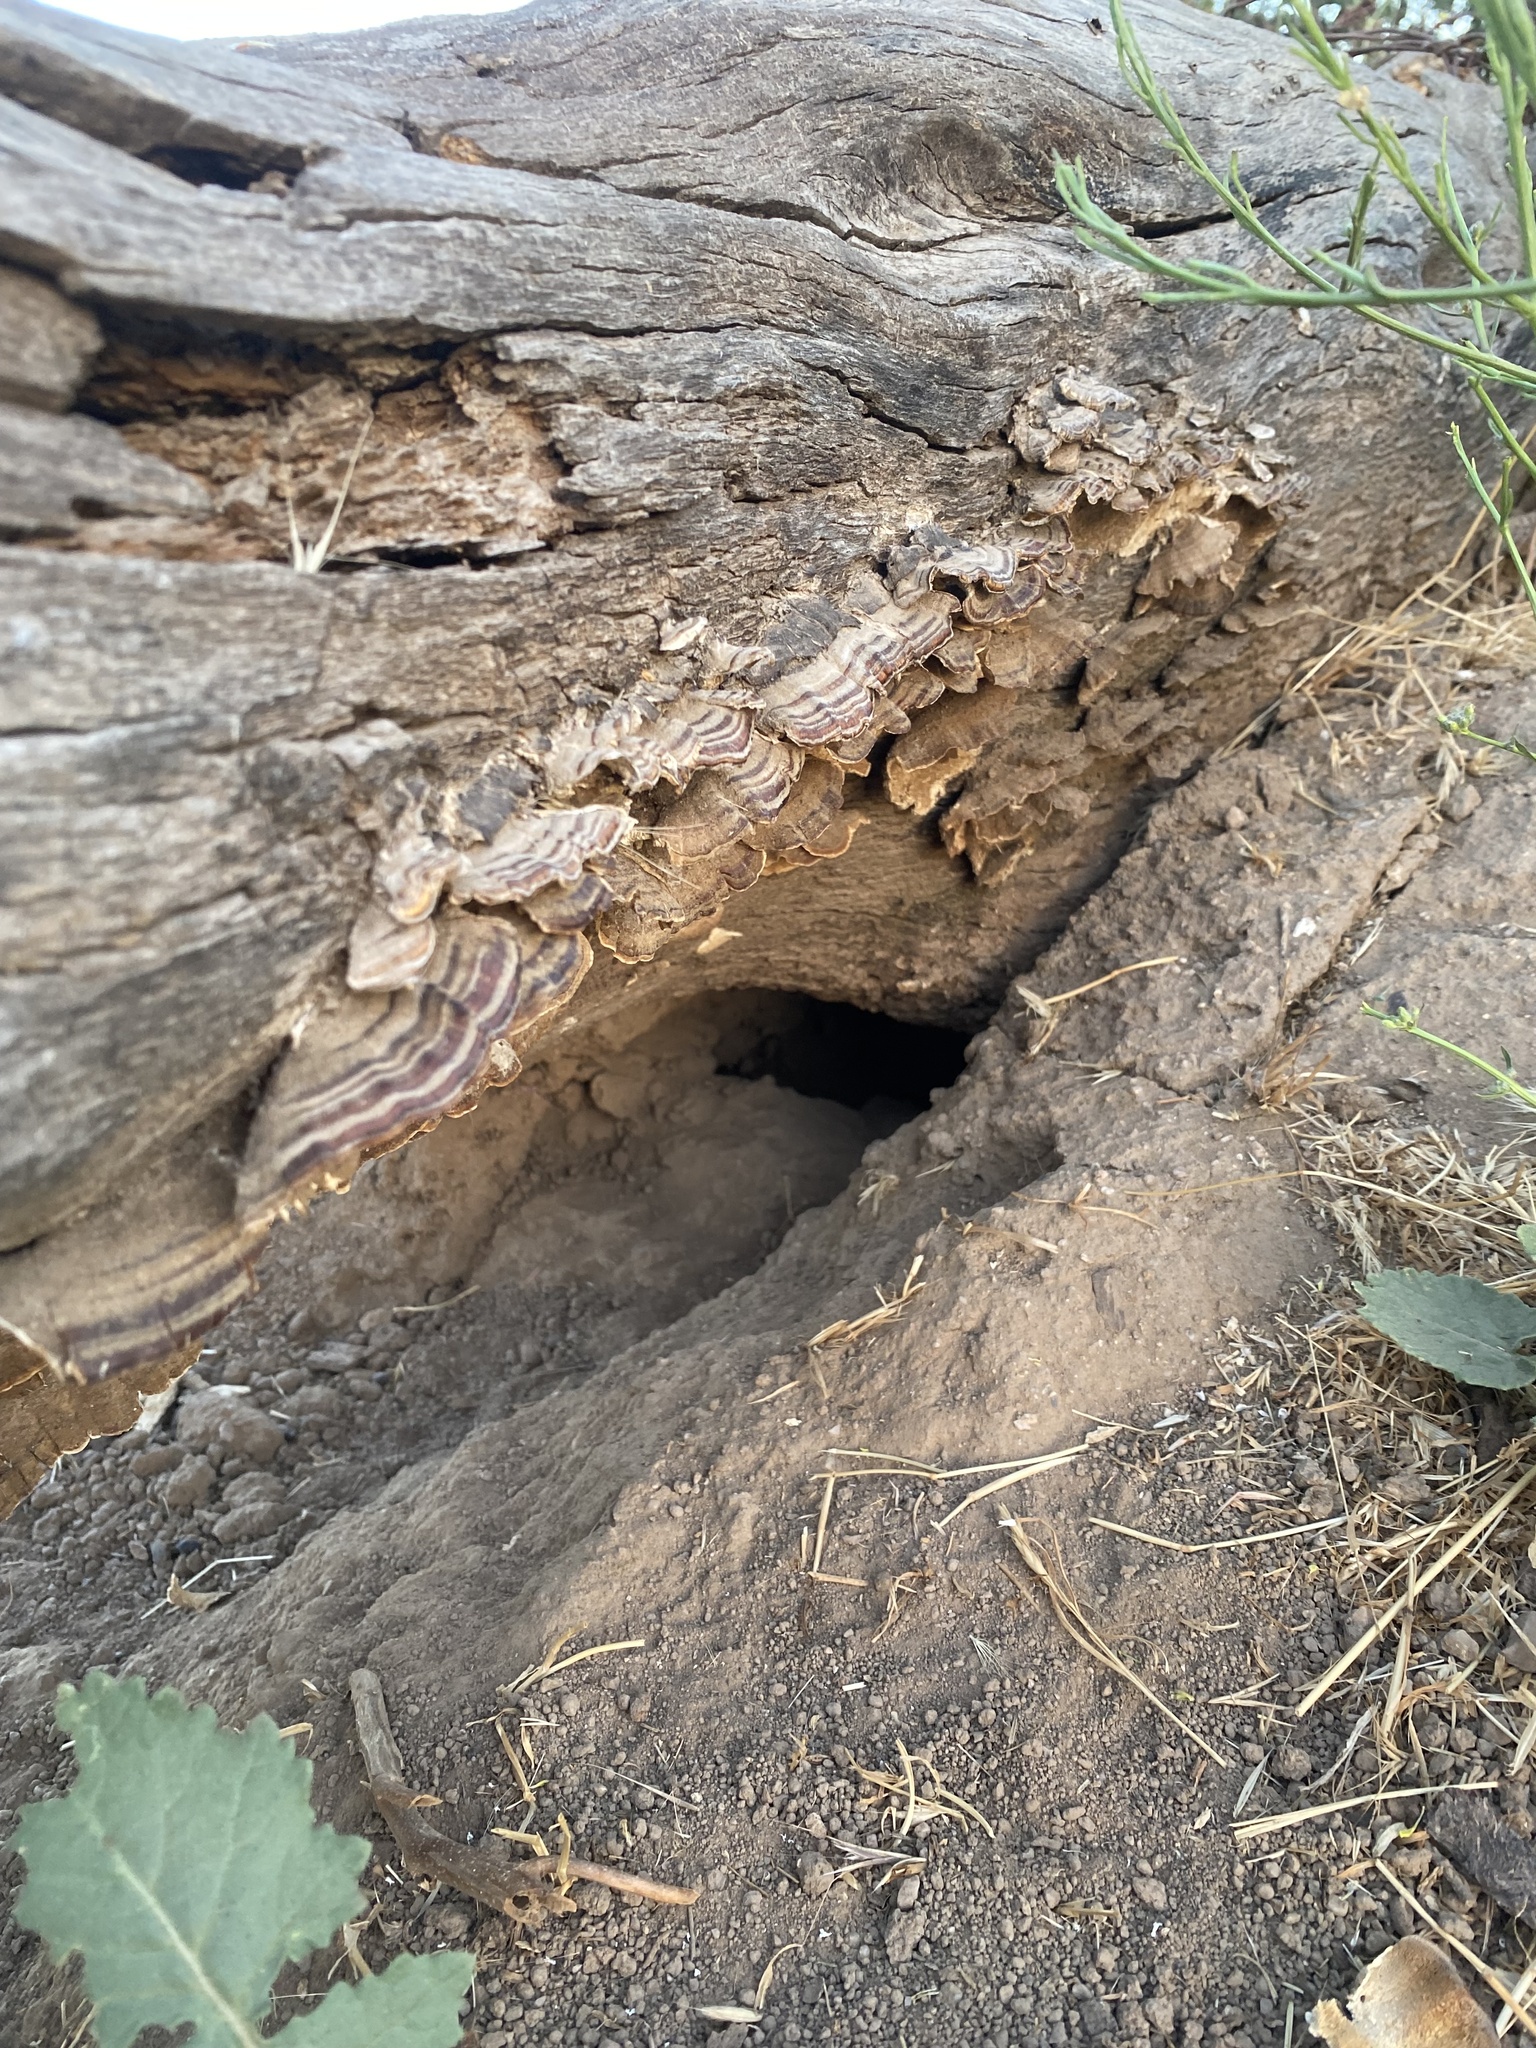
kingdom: Fungi
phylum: Basidiomycota
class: Agaricomycetes
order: Polyporales
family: Polyporaceae
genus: Trametes
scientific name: Trametes versicolor
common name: Turkeytail
